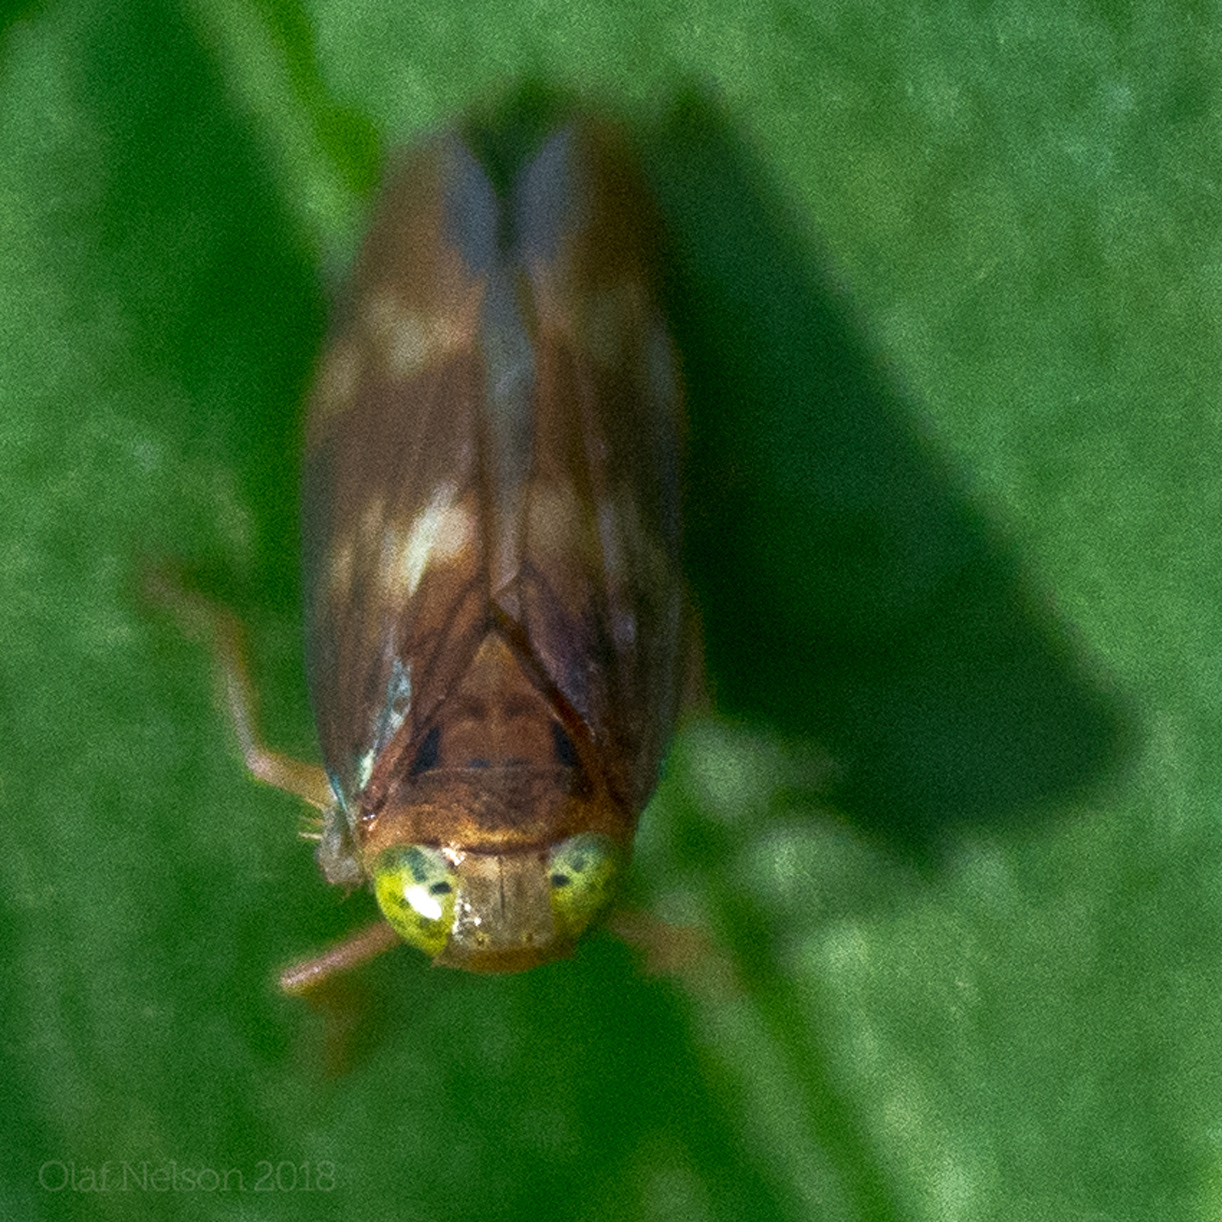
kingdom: Animalia
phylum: Arthropoda
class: Insecta
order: Hemiptera
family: Cicadellidae
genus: Jikradia
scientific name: Jikradia olitoria
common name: Coppery leafhopper
